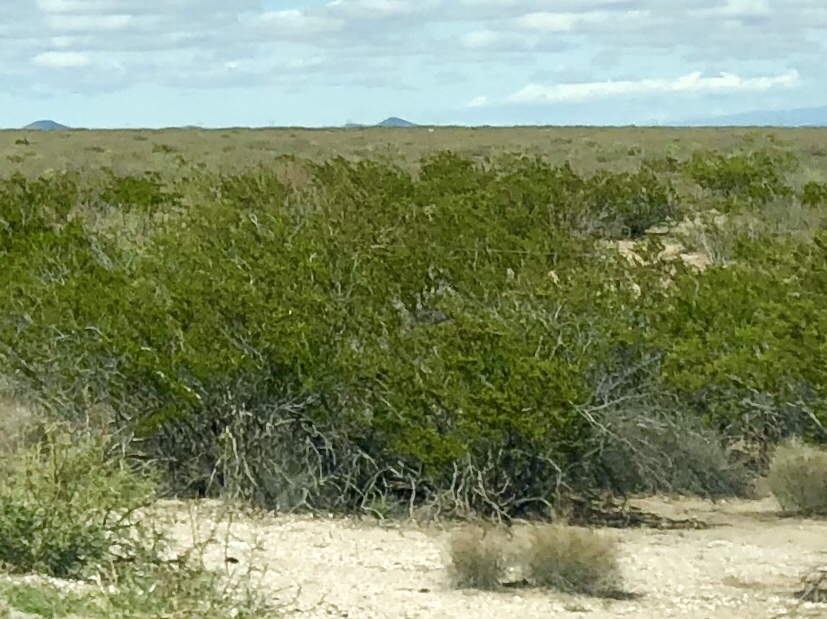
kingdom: Plantae
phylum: Tracheophyta
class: Magnoliopsida
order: Zygophyllales
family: Zygophyllaceae
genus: Larrea
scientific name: Larrea tridentata
